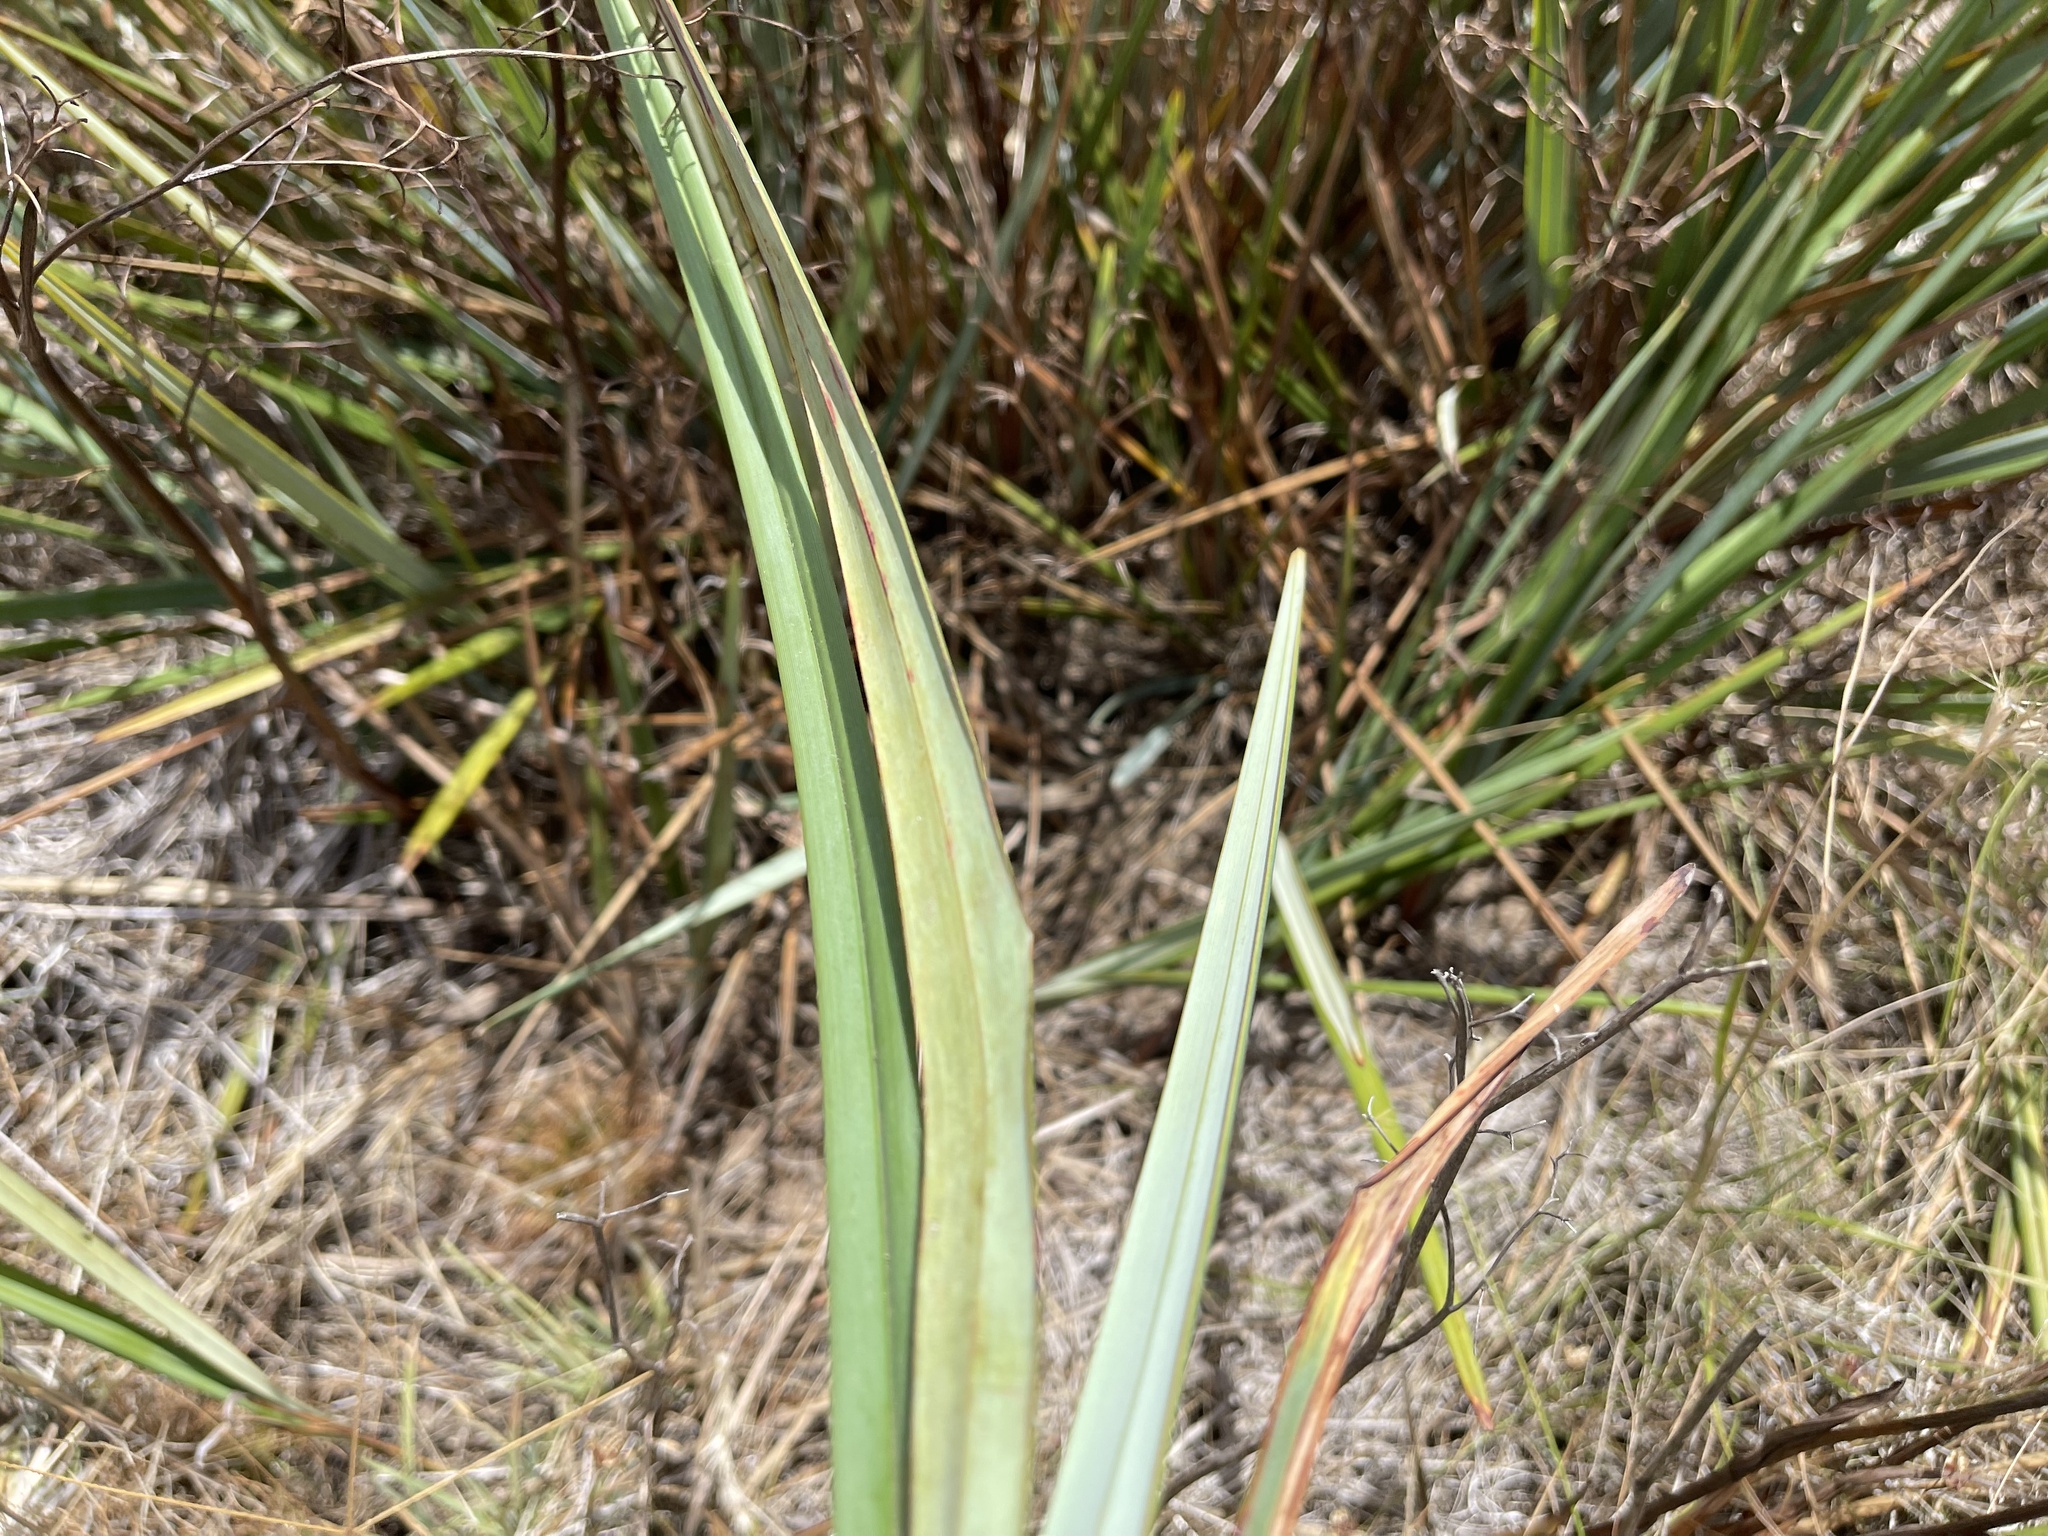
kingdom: Plantae
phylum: Tracheophyta
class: Liliopsida
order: Asparagales
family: Asphodelaceae
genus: Dianella
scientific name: Dianella revoluta
